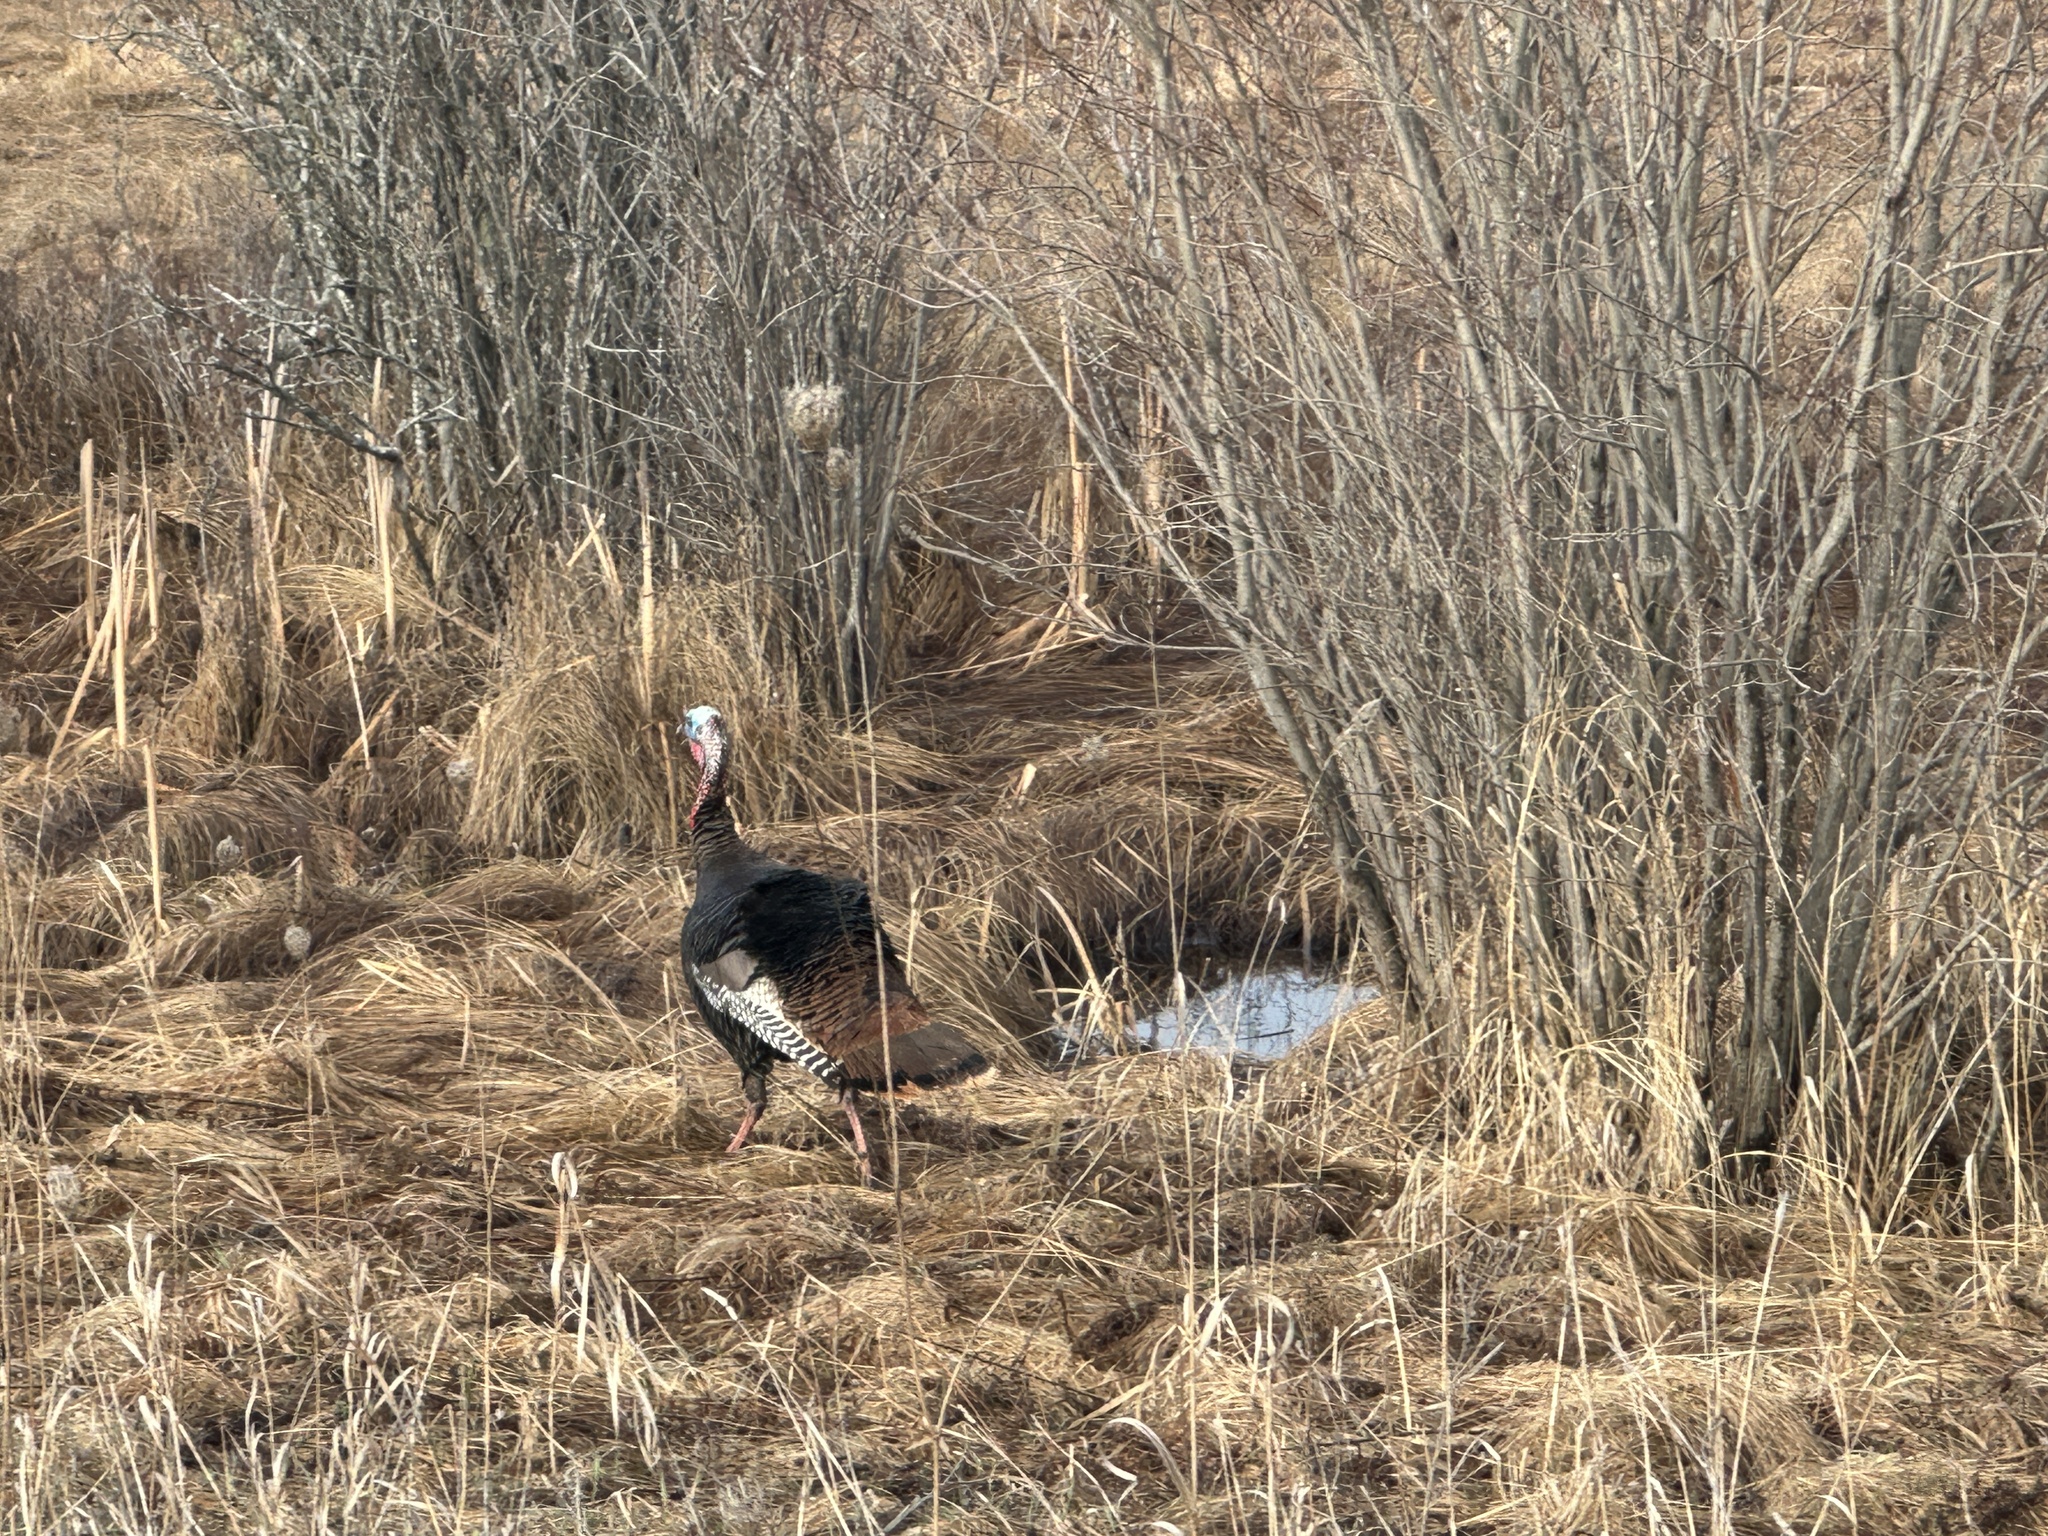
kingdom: Animalia
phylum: Chordata
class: Aves
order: Galliformes
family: Phasianidae
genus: Meleagris
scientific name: Meleagris gallopavo
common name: Wild turkey
